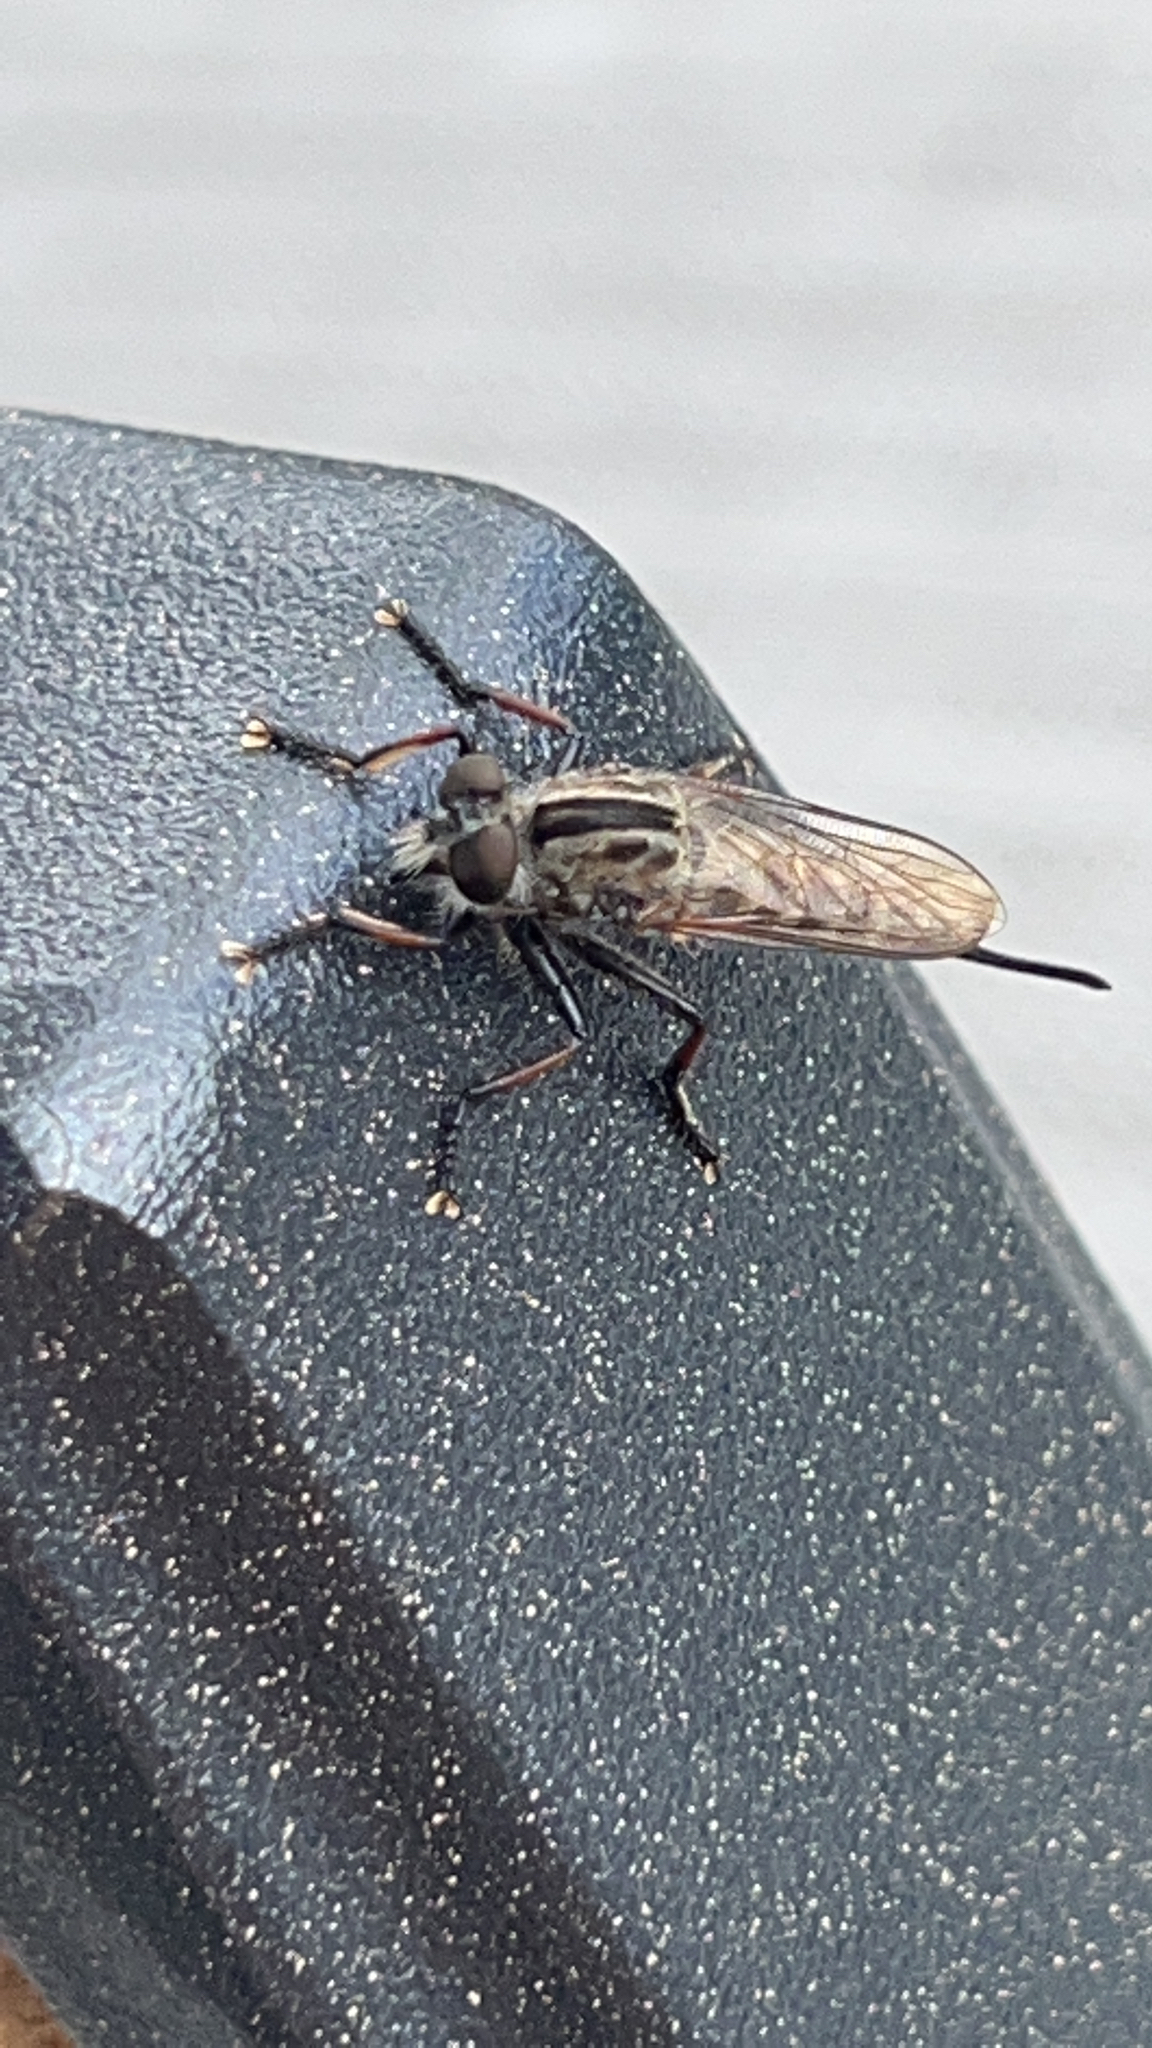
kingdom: Animalia
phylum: Arthropoda
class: Insecta
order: Diptera
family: Asilidae
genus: Efferia
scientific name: Efferia aestuans
